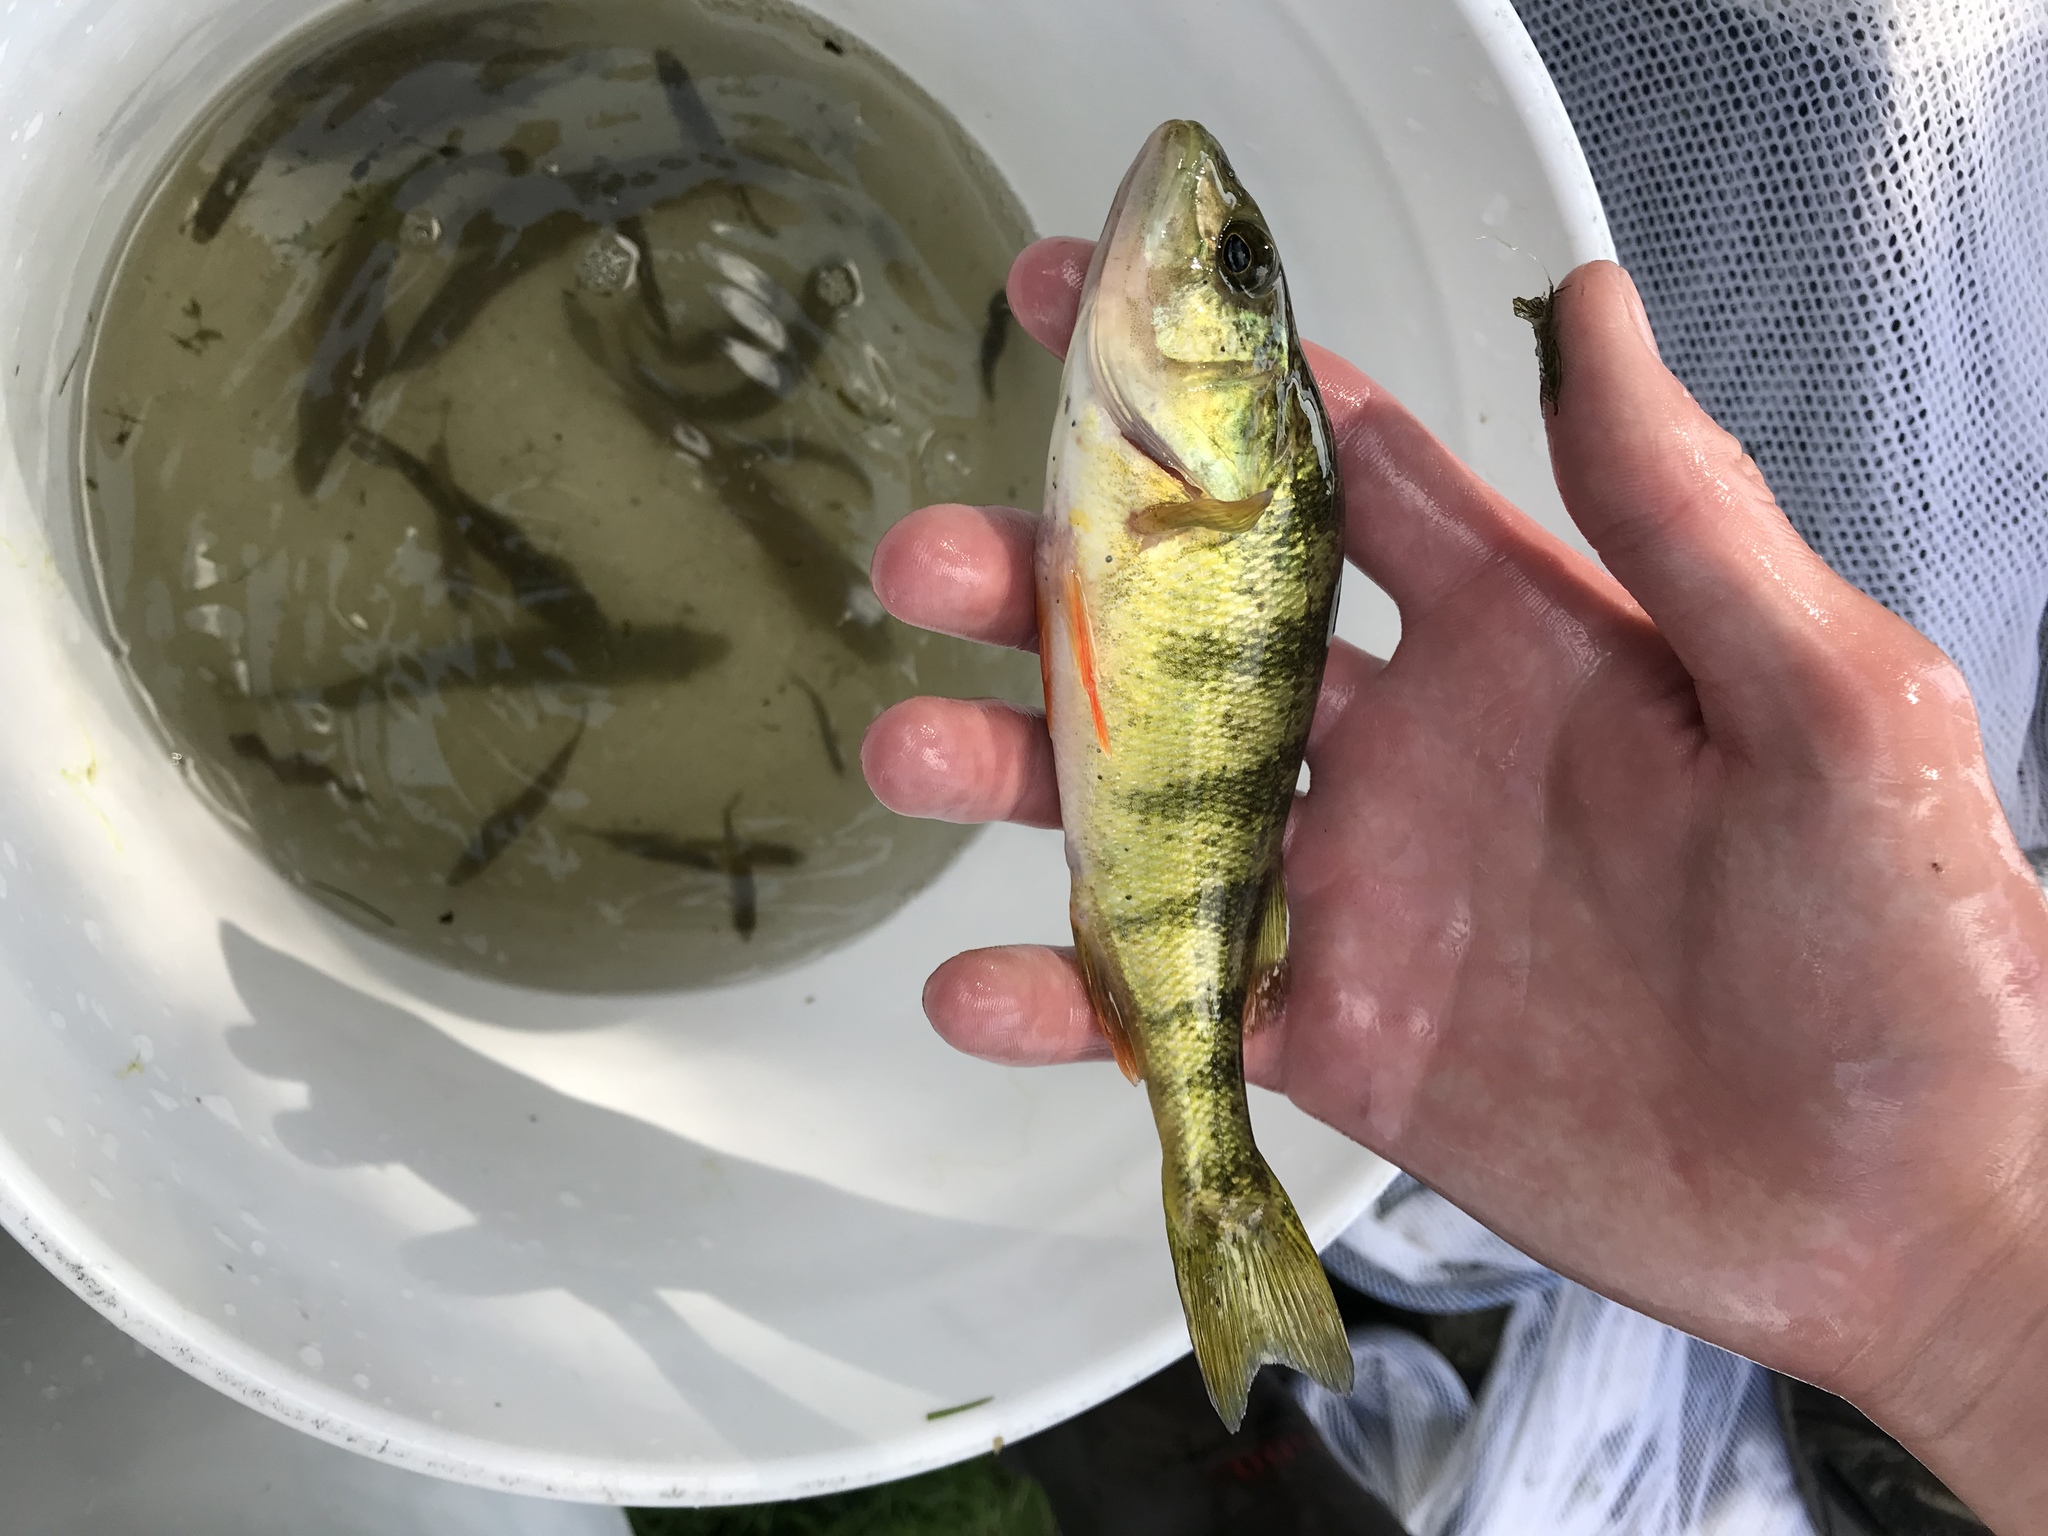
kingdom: Animalia
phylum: Chordata
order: Perciformes
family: Percidae
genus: Perca
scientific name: Perca flavescens
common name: Yellow perch
